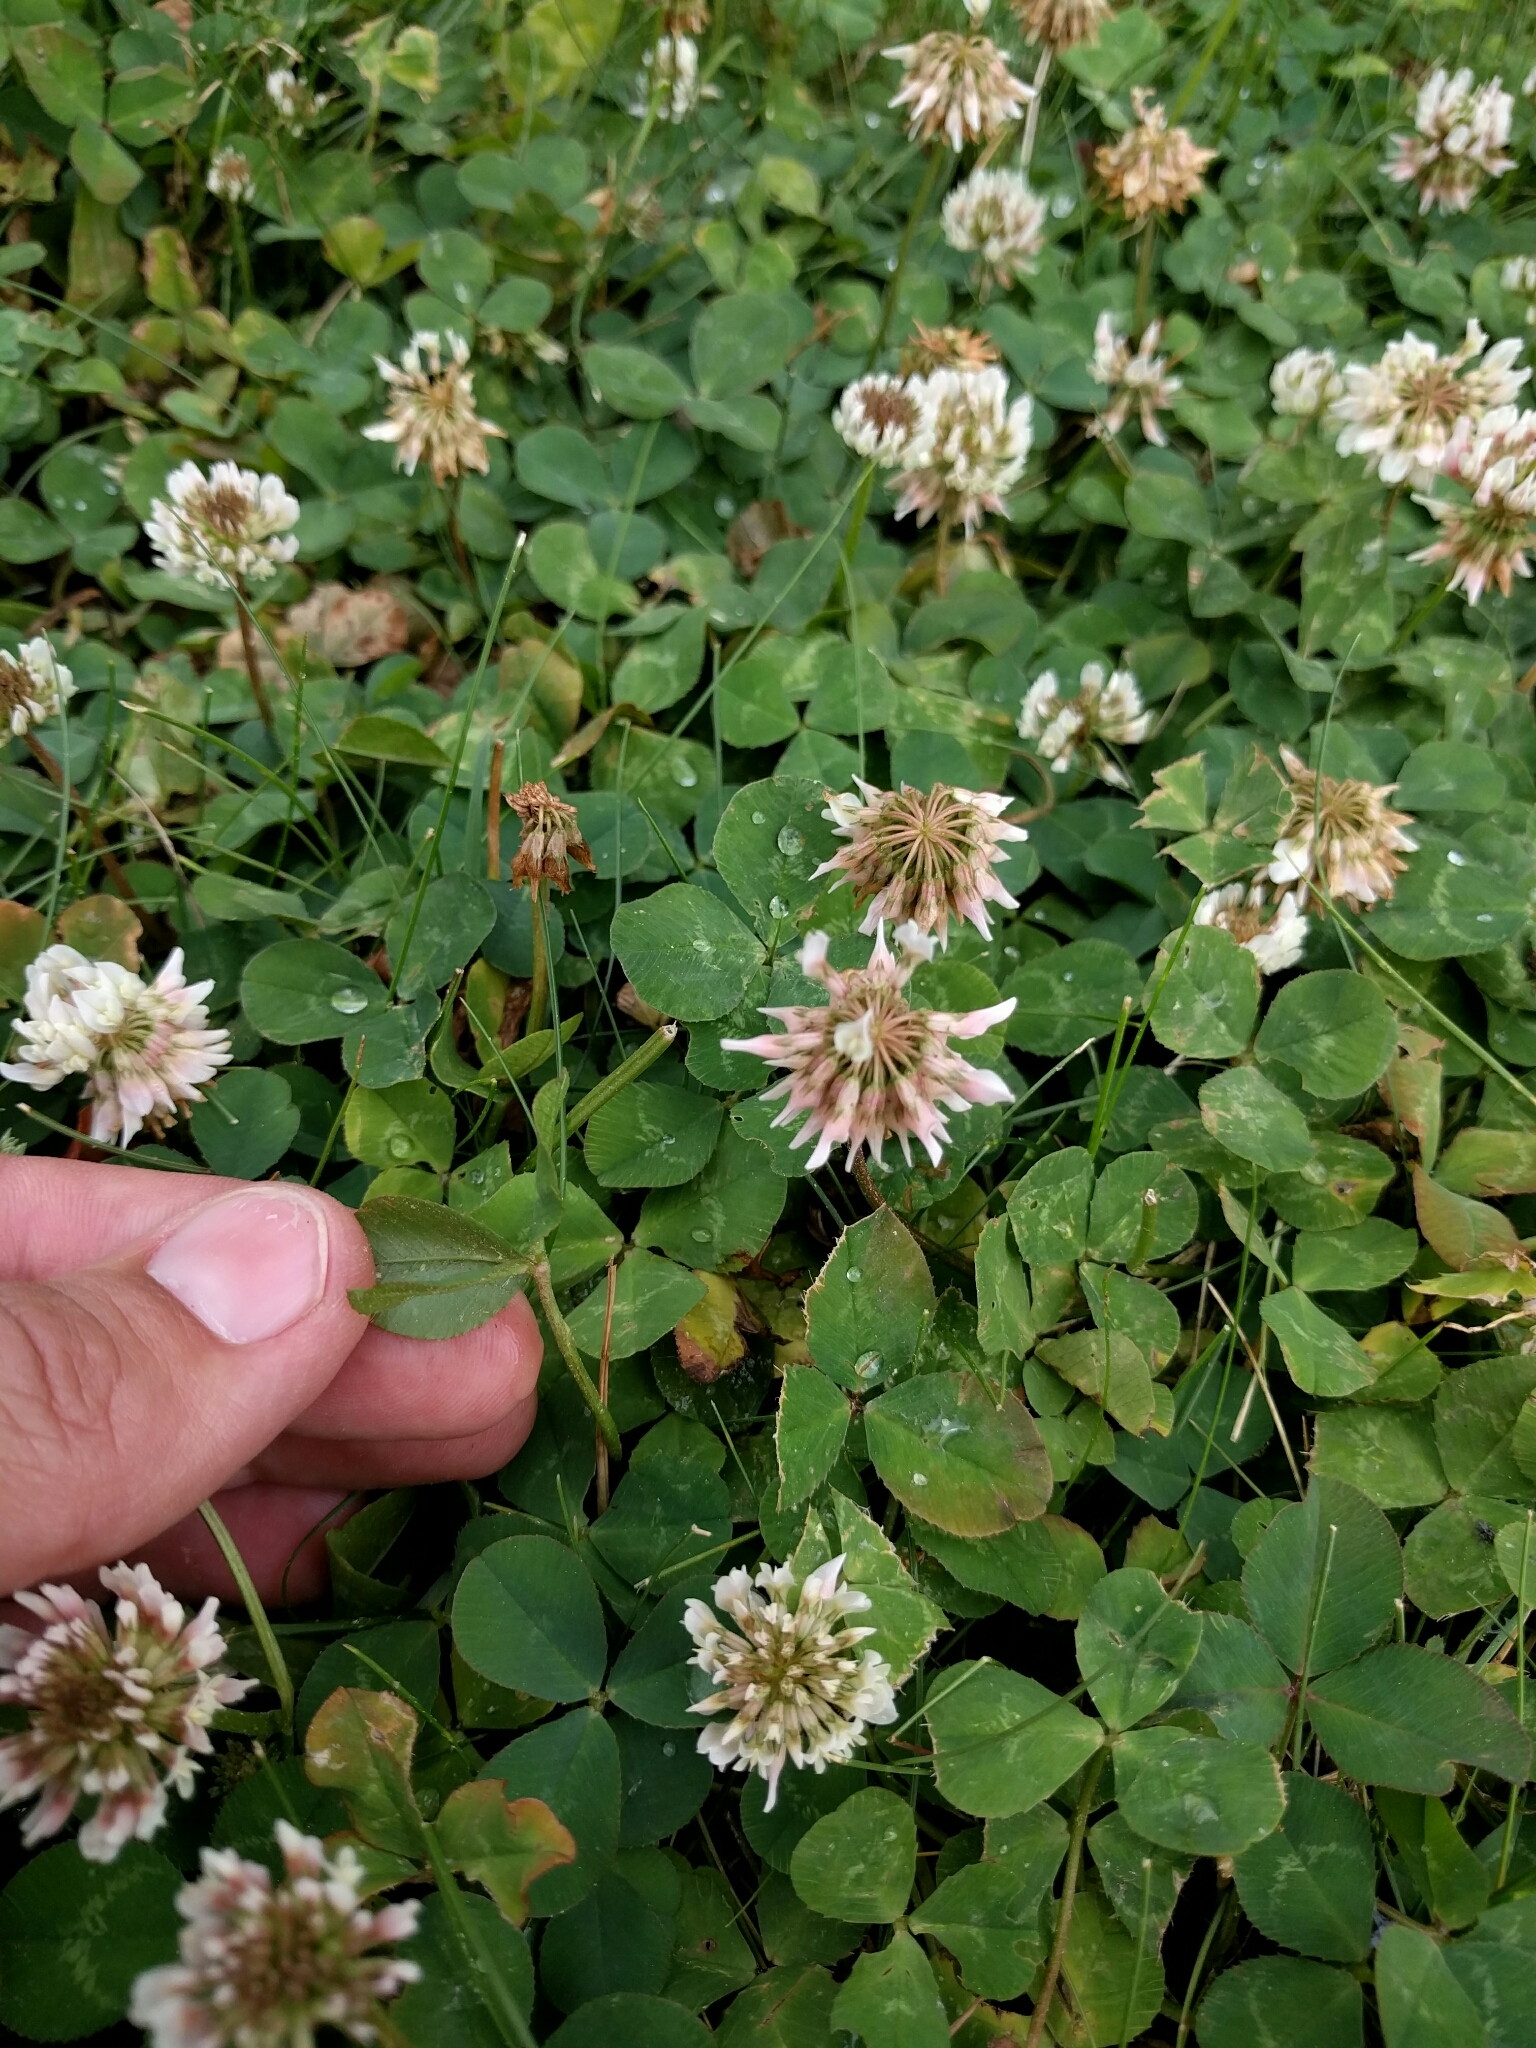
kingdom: Plantae
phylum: Tracheophyta
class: Magnoliopsida
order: Fabales
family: Fabaceae
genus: Trifolium
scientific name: Trifolium repens
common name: White clover
